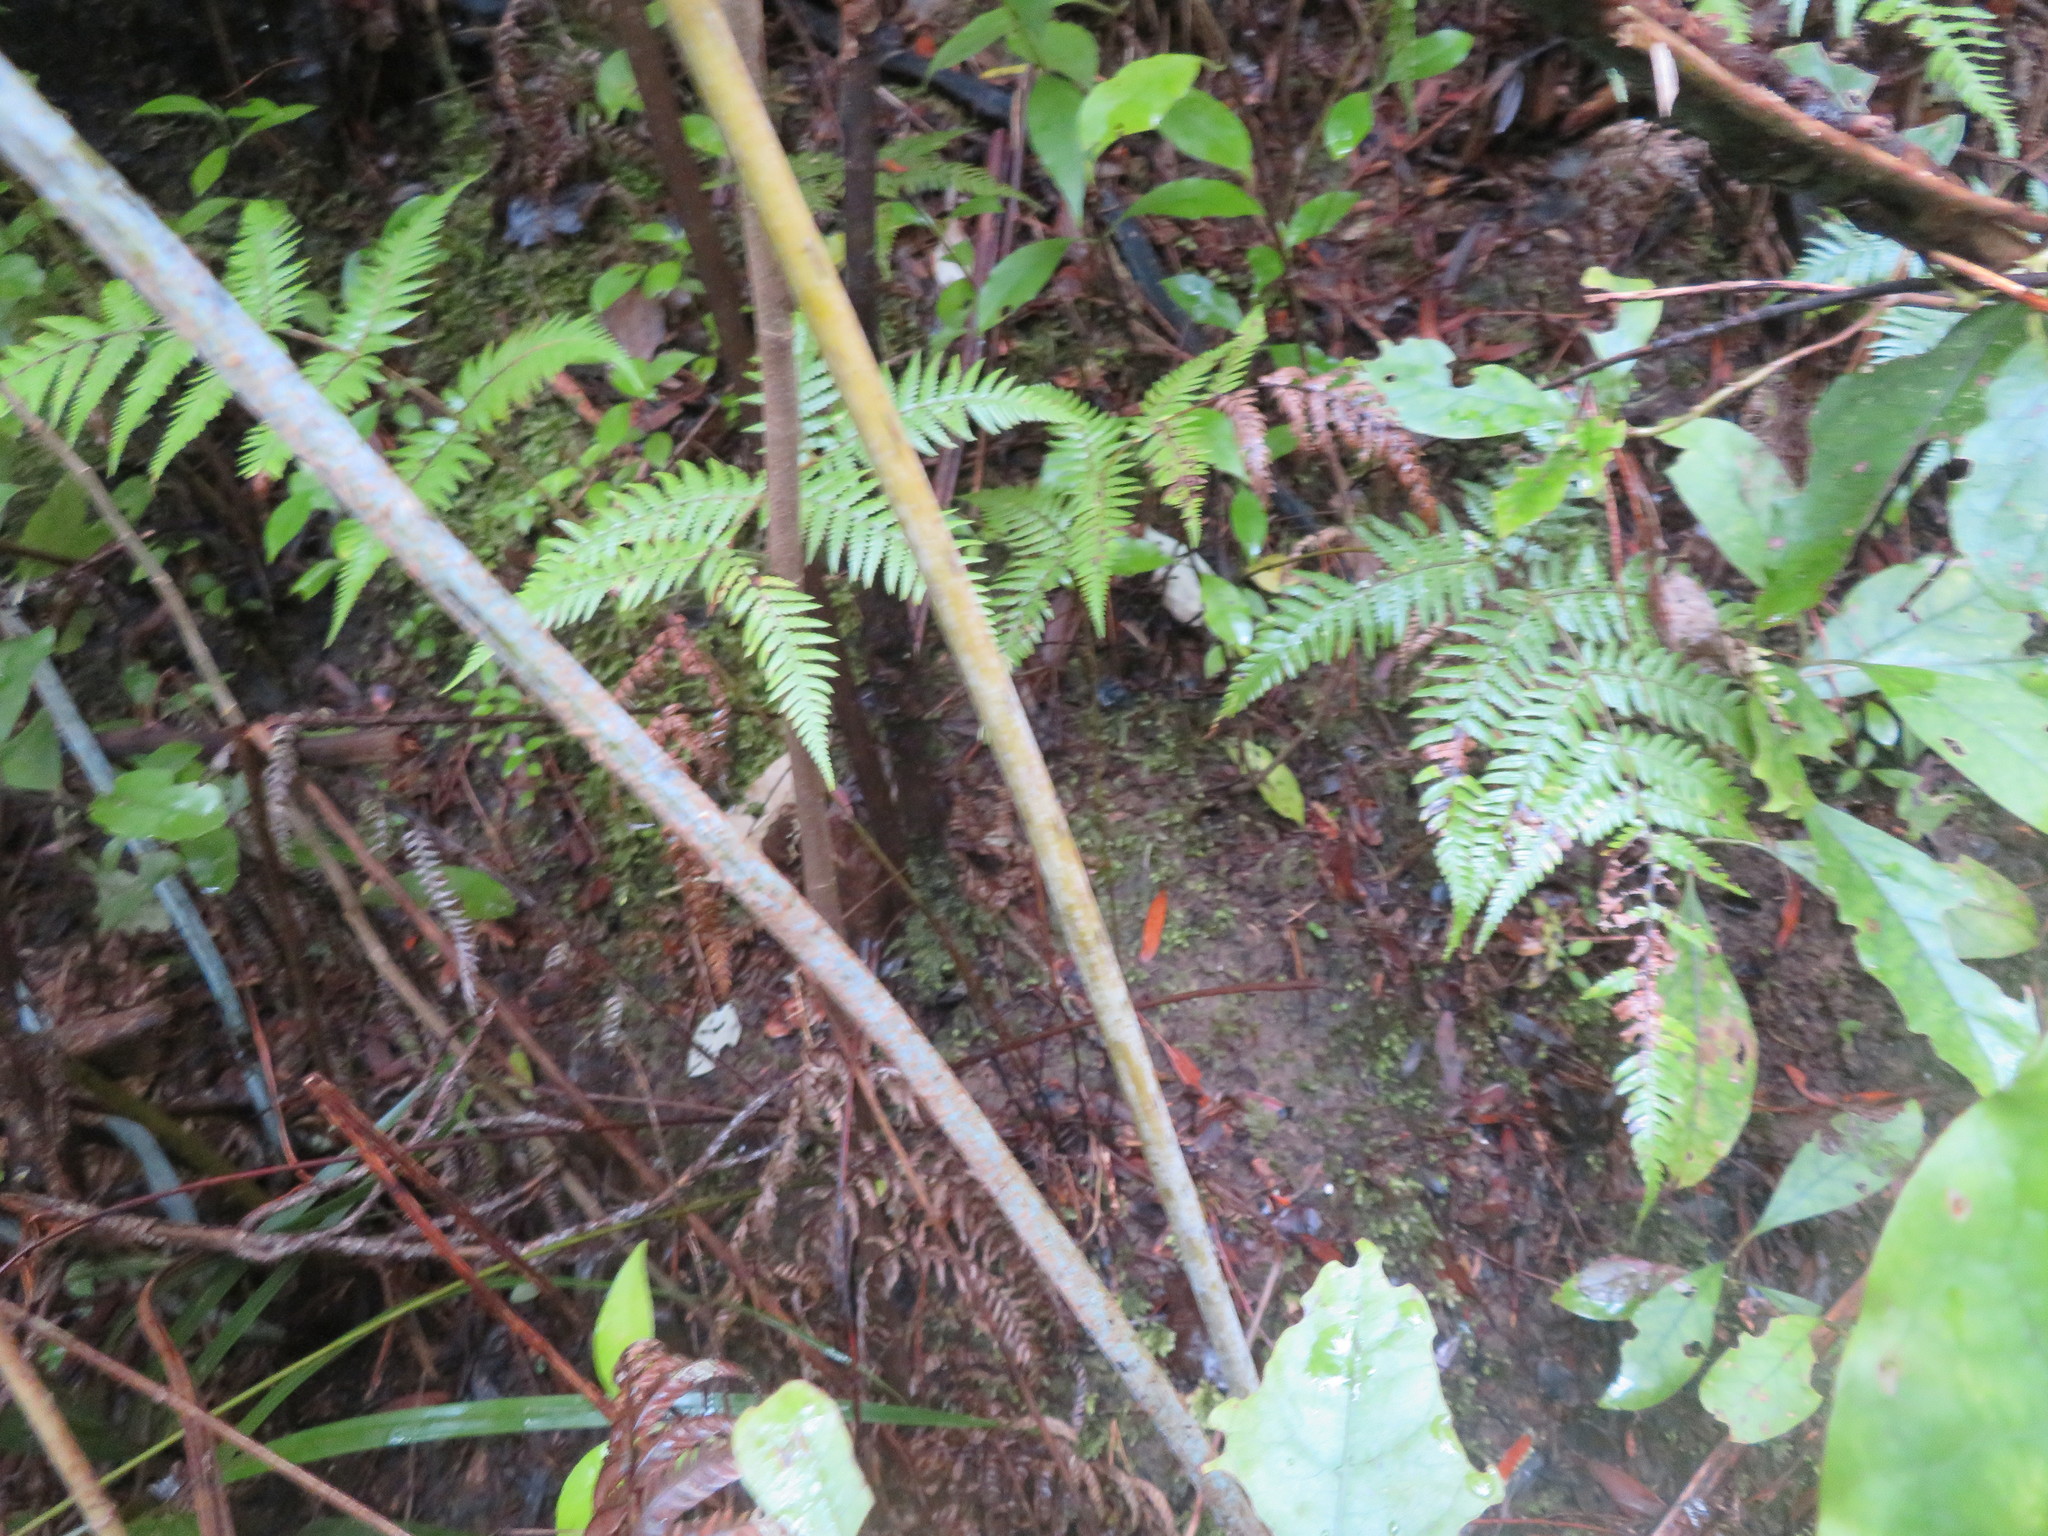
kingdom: Plantae
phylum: Tracheophyta
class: Polypodiopsida
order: Cyatheales
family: Cyatheaceae
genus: Alsophila
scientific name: Alsophila dealbata
